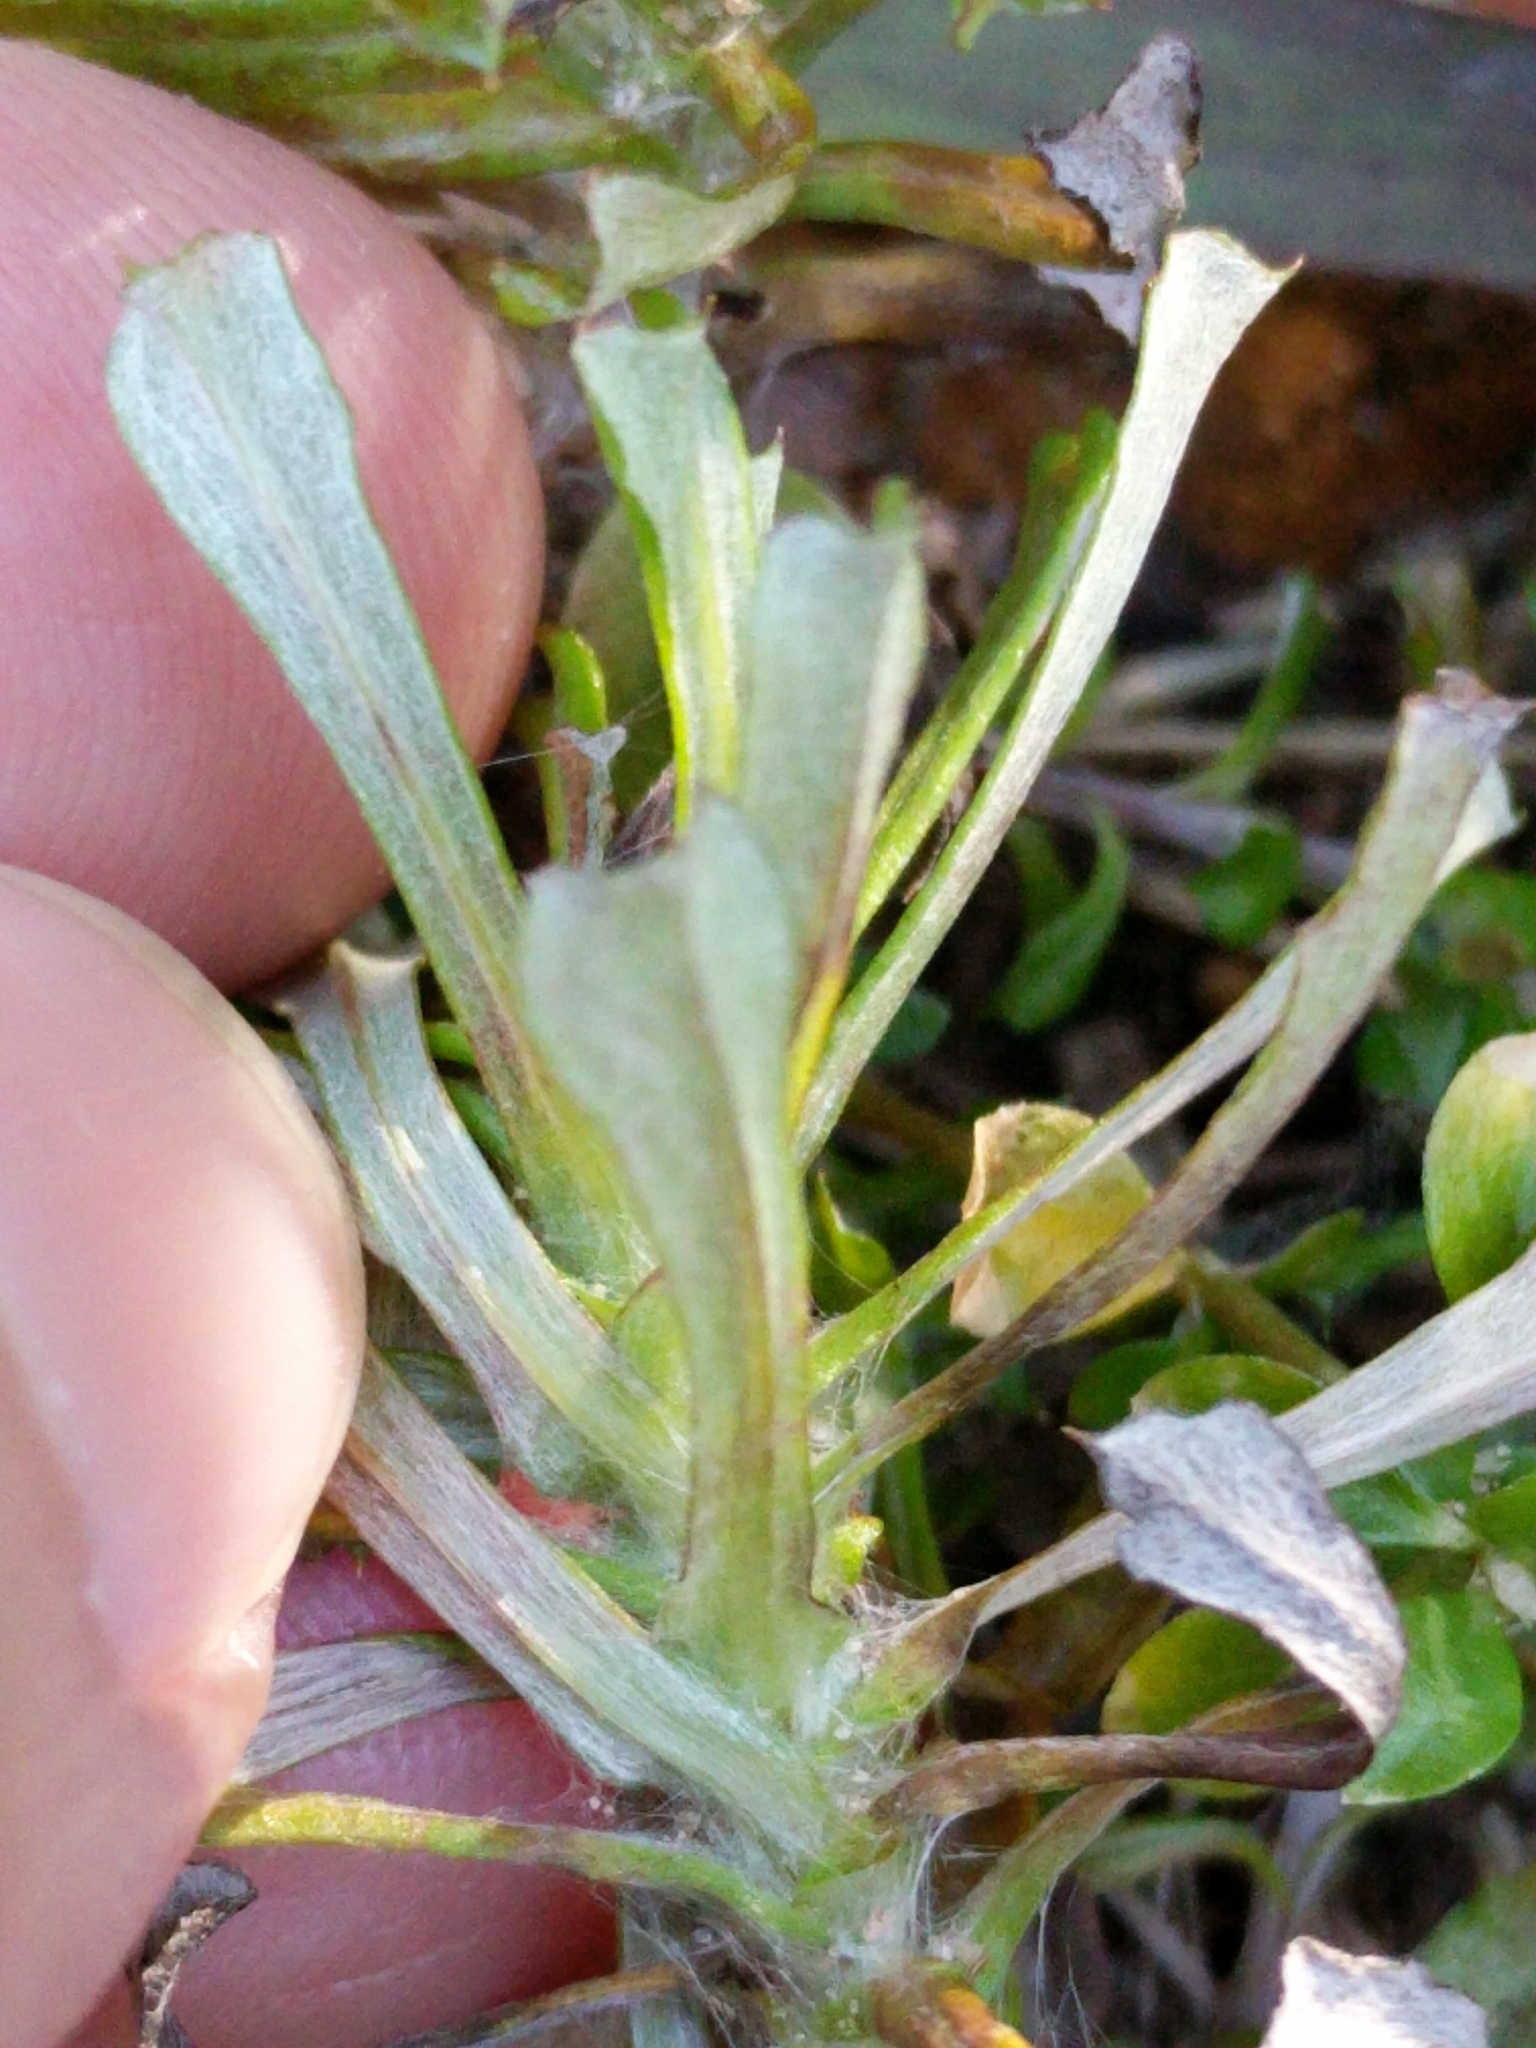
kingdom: Plantae
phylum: Tracheophyta
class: Magnoliopsida
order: Asterales
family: Asteraceae
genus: Facelis
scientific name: Facelis retusa
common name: Annual trampweed
